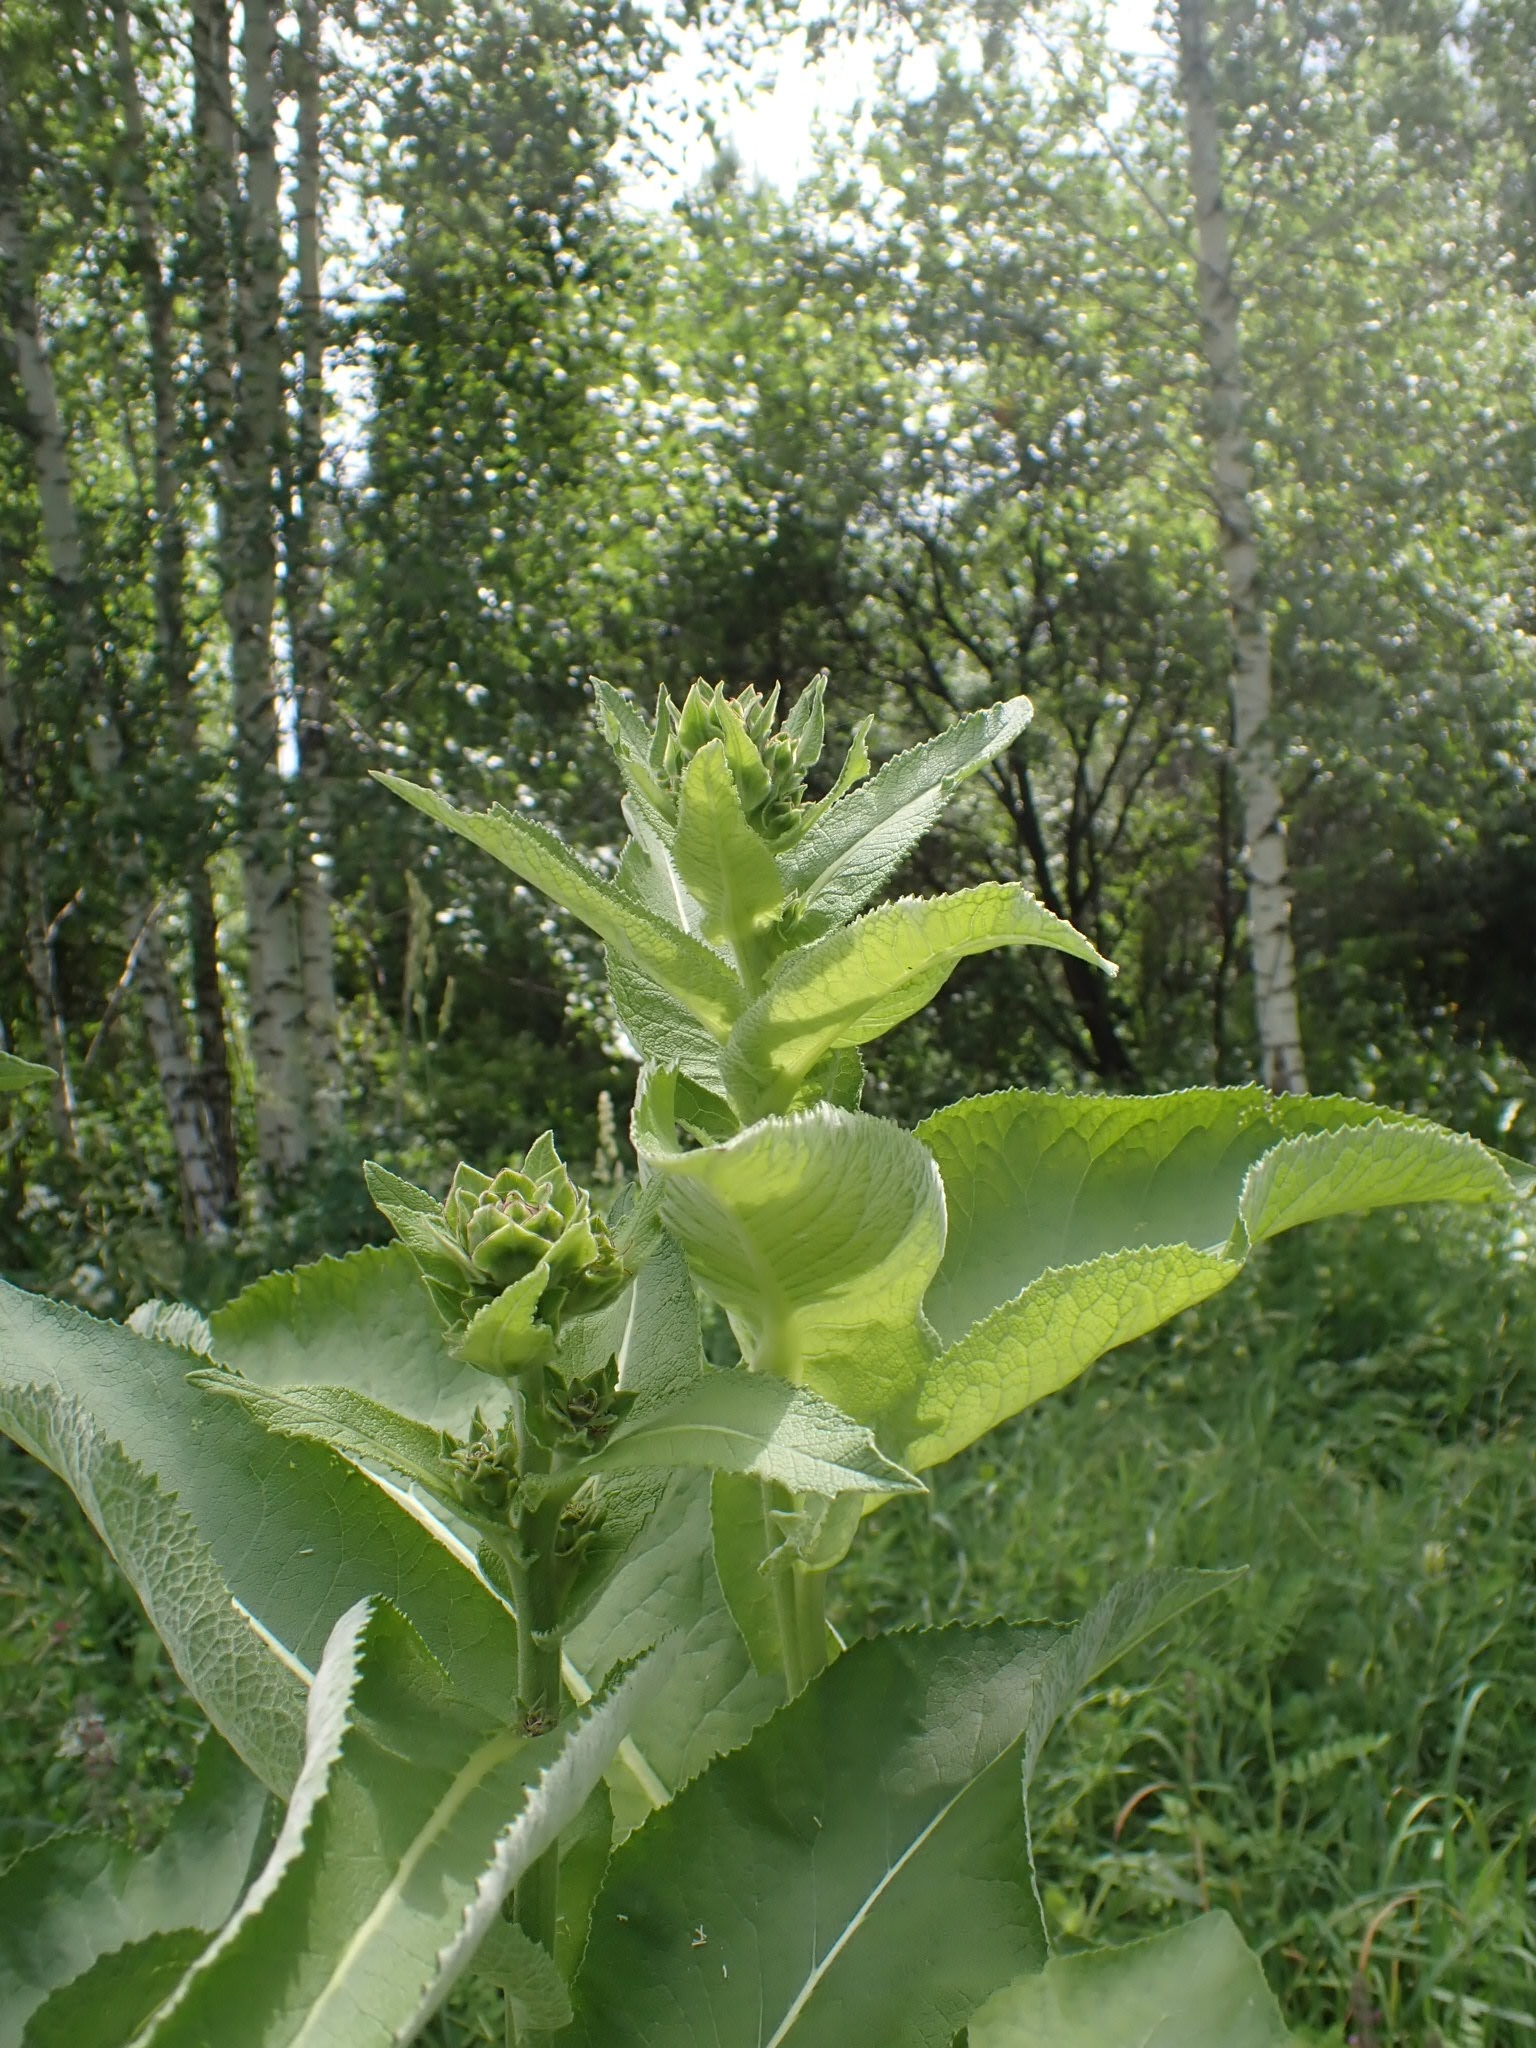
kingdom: Plantae
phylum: Tracheophyta
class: Magnoliopsida
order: Asterales
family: Asteraceae
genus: Inula
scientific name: Inula helenium
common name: Elecampane
